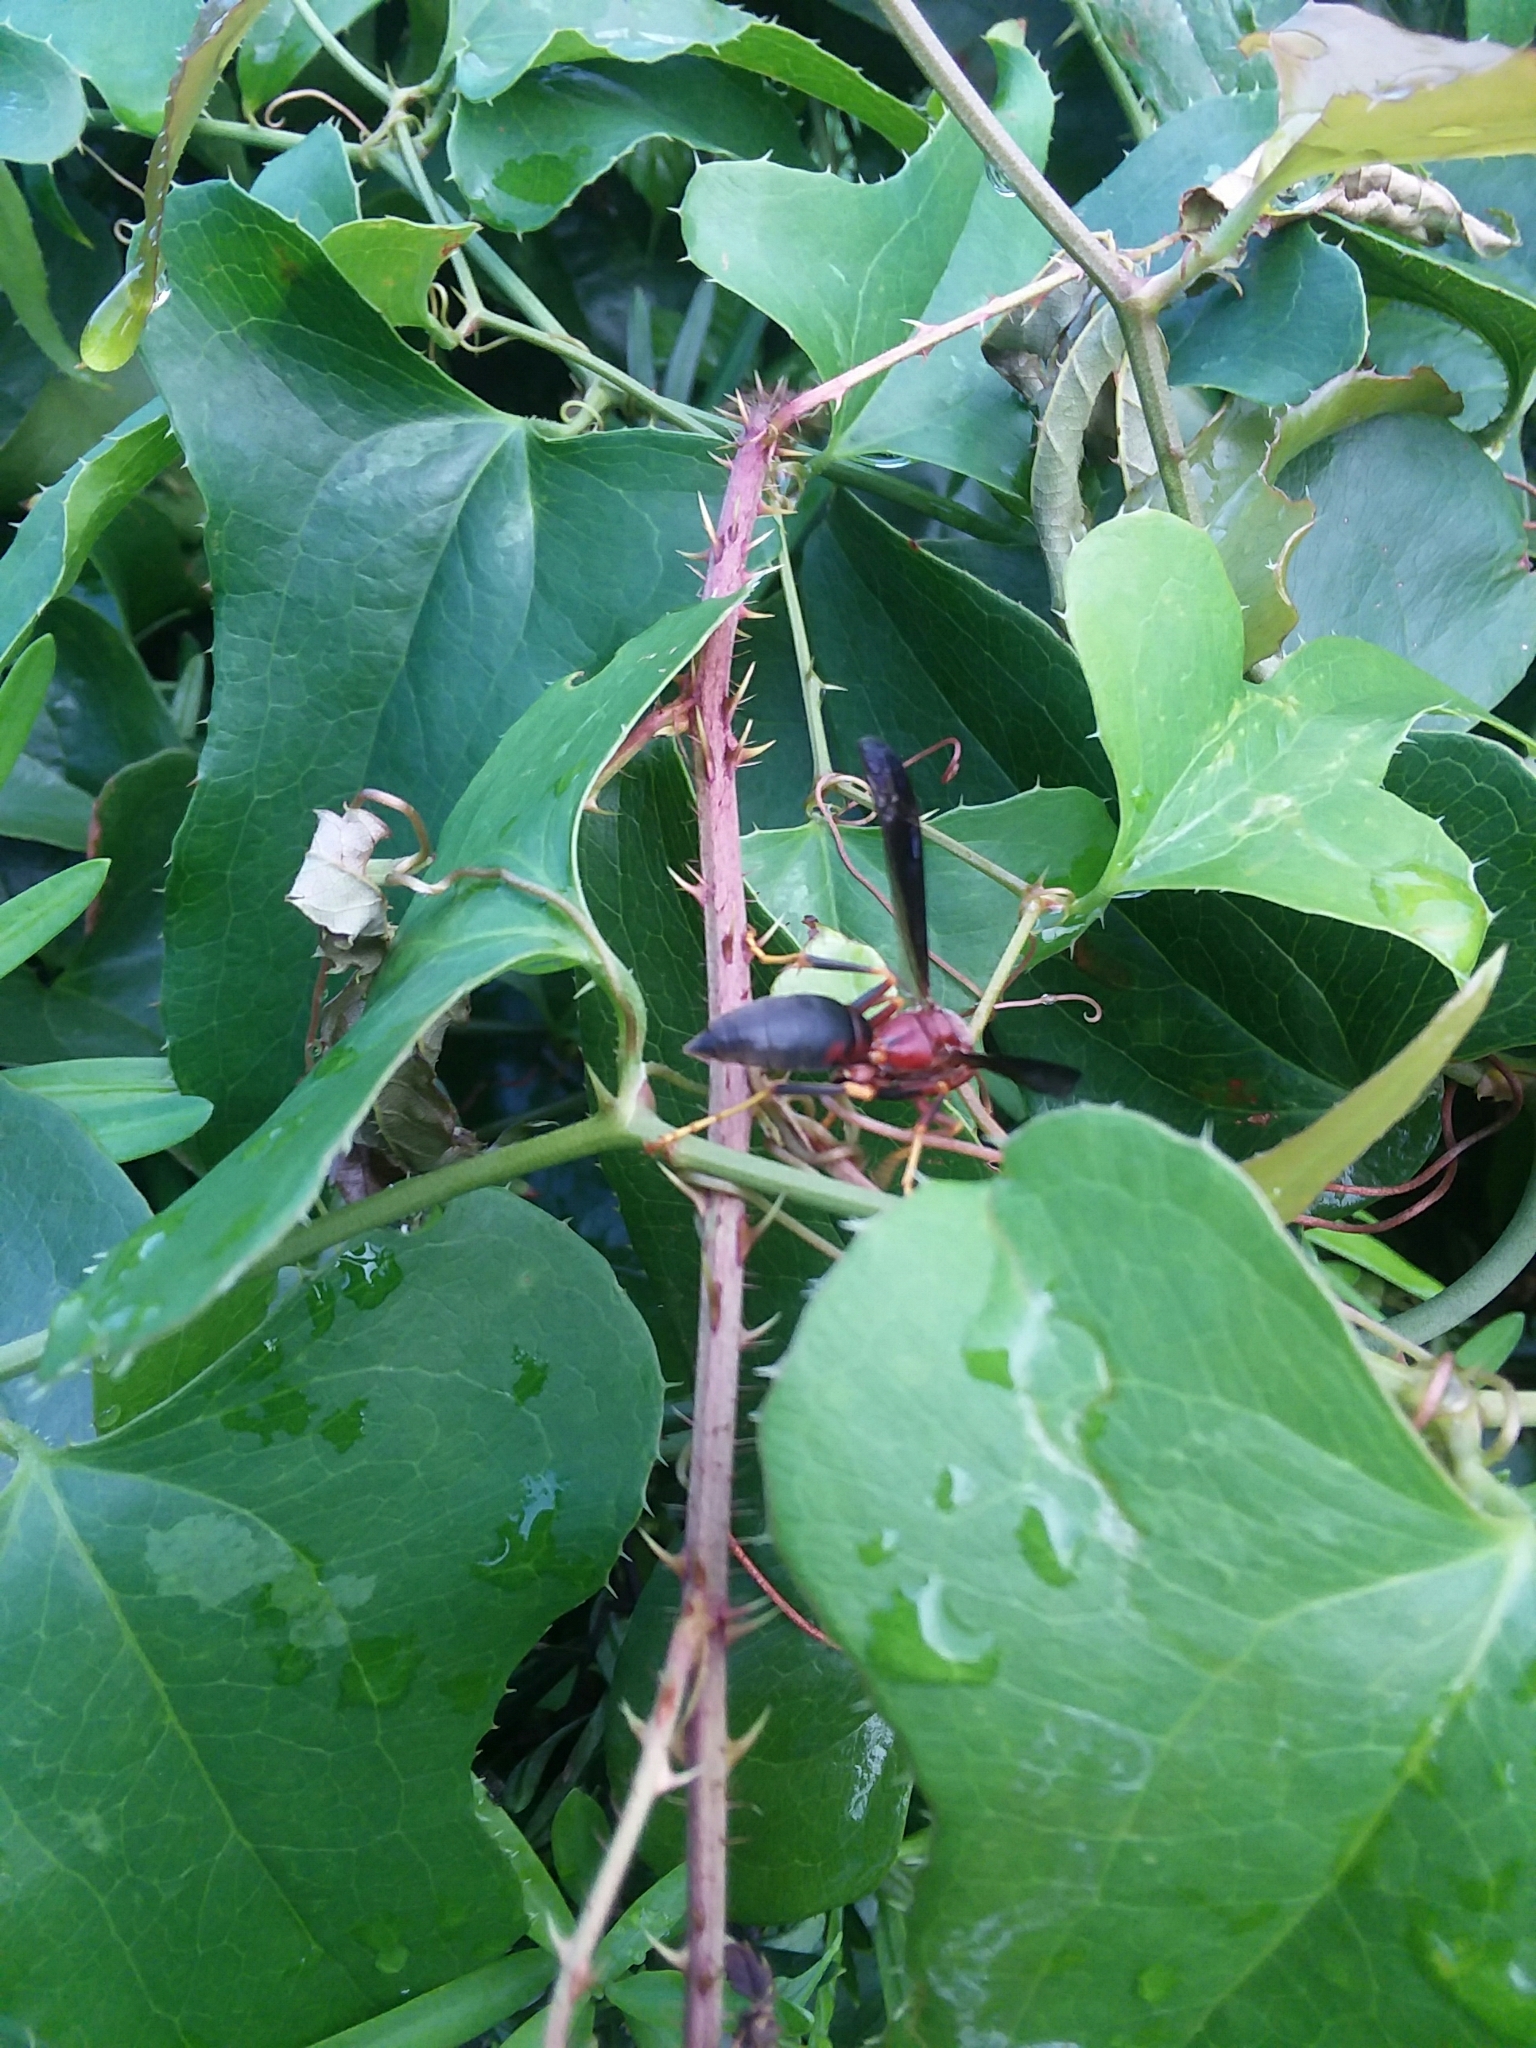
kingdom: Animalia
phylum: Arthropoda
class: Insecta
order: Hymenoptera
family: Vespidae
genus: Fuscopolistes
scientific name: Fuscopolistes
